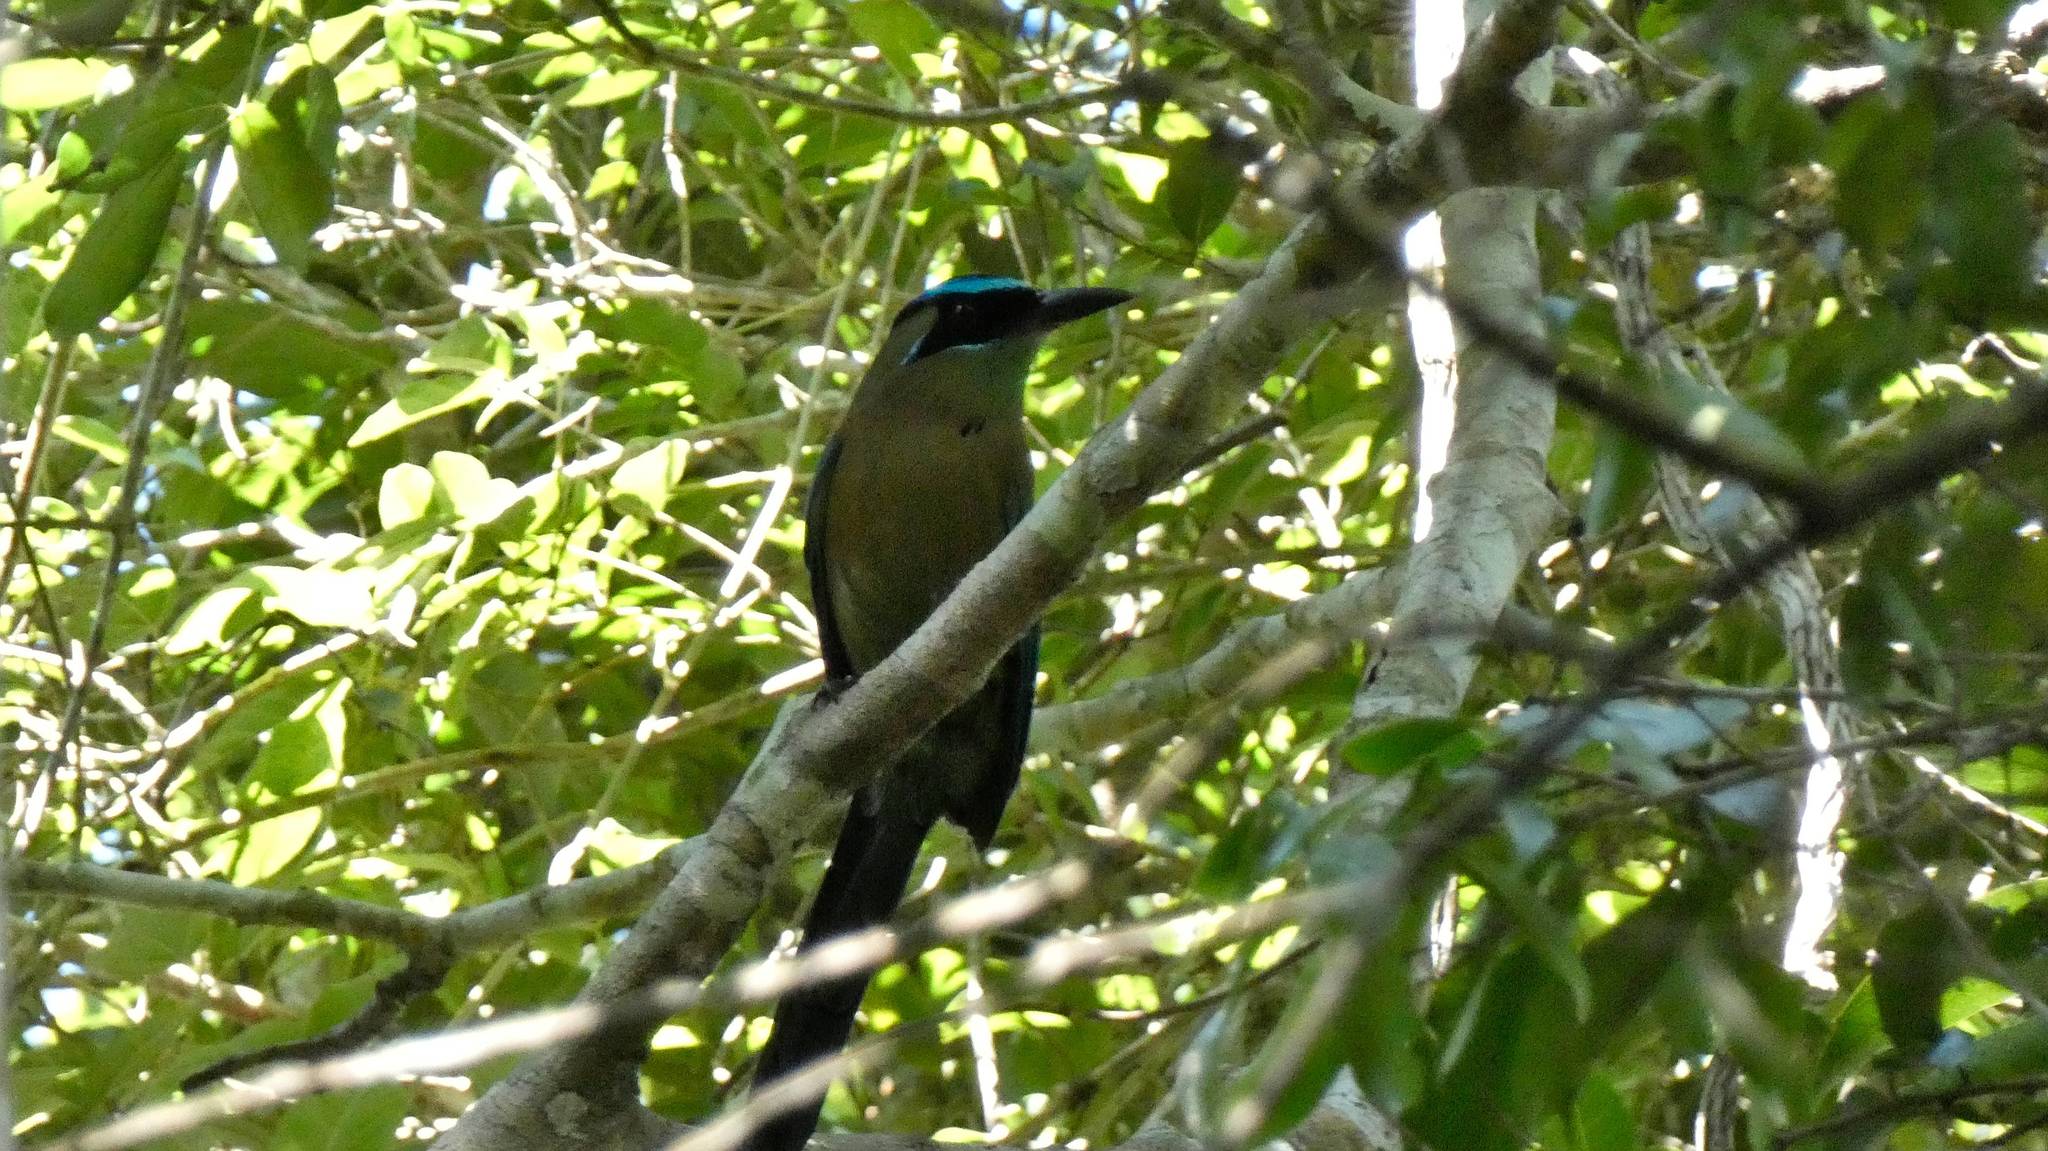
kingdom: Animalia
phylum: Chordata
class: Aves
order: Coraciiformes
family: Momotidae
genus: Momotus
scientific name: Momotus lessonii
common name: Lesson's motmot
